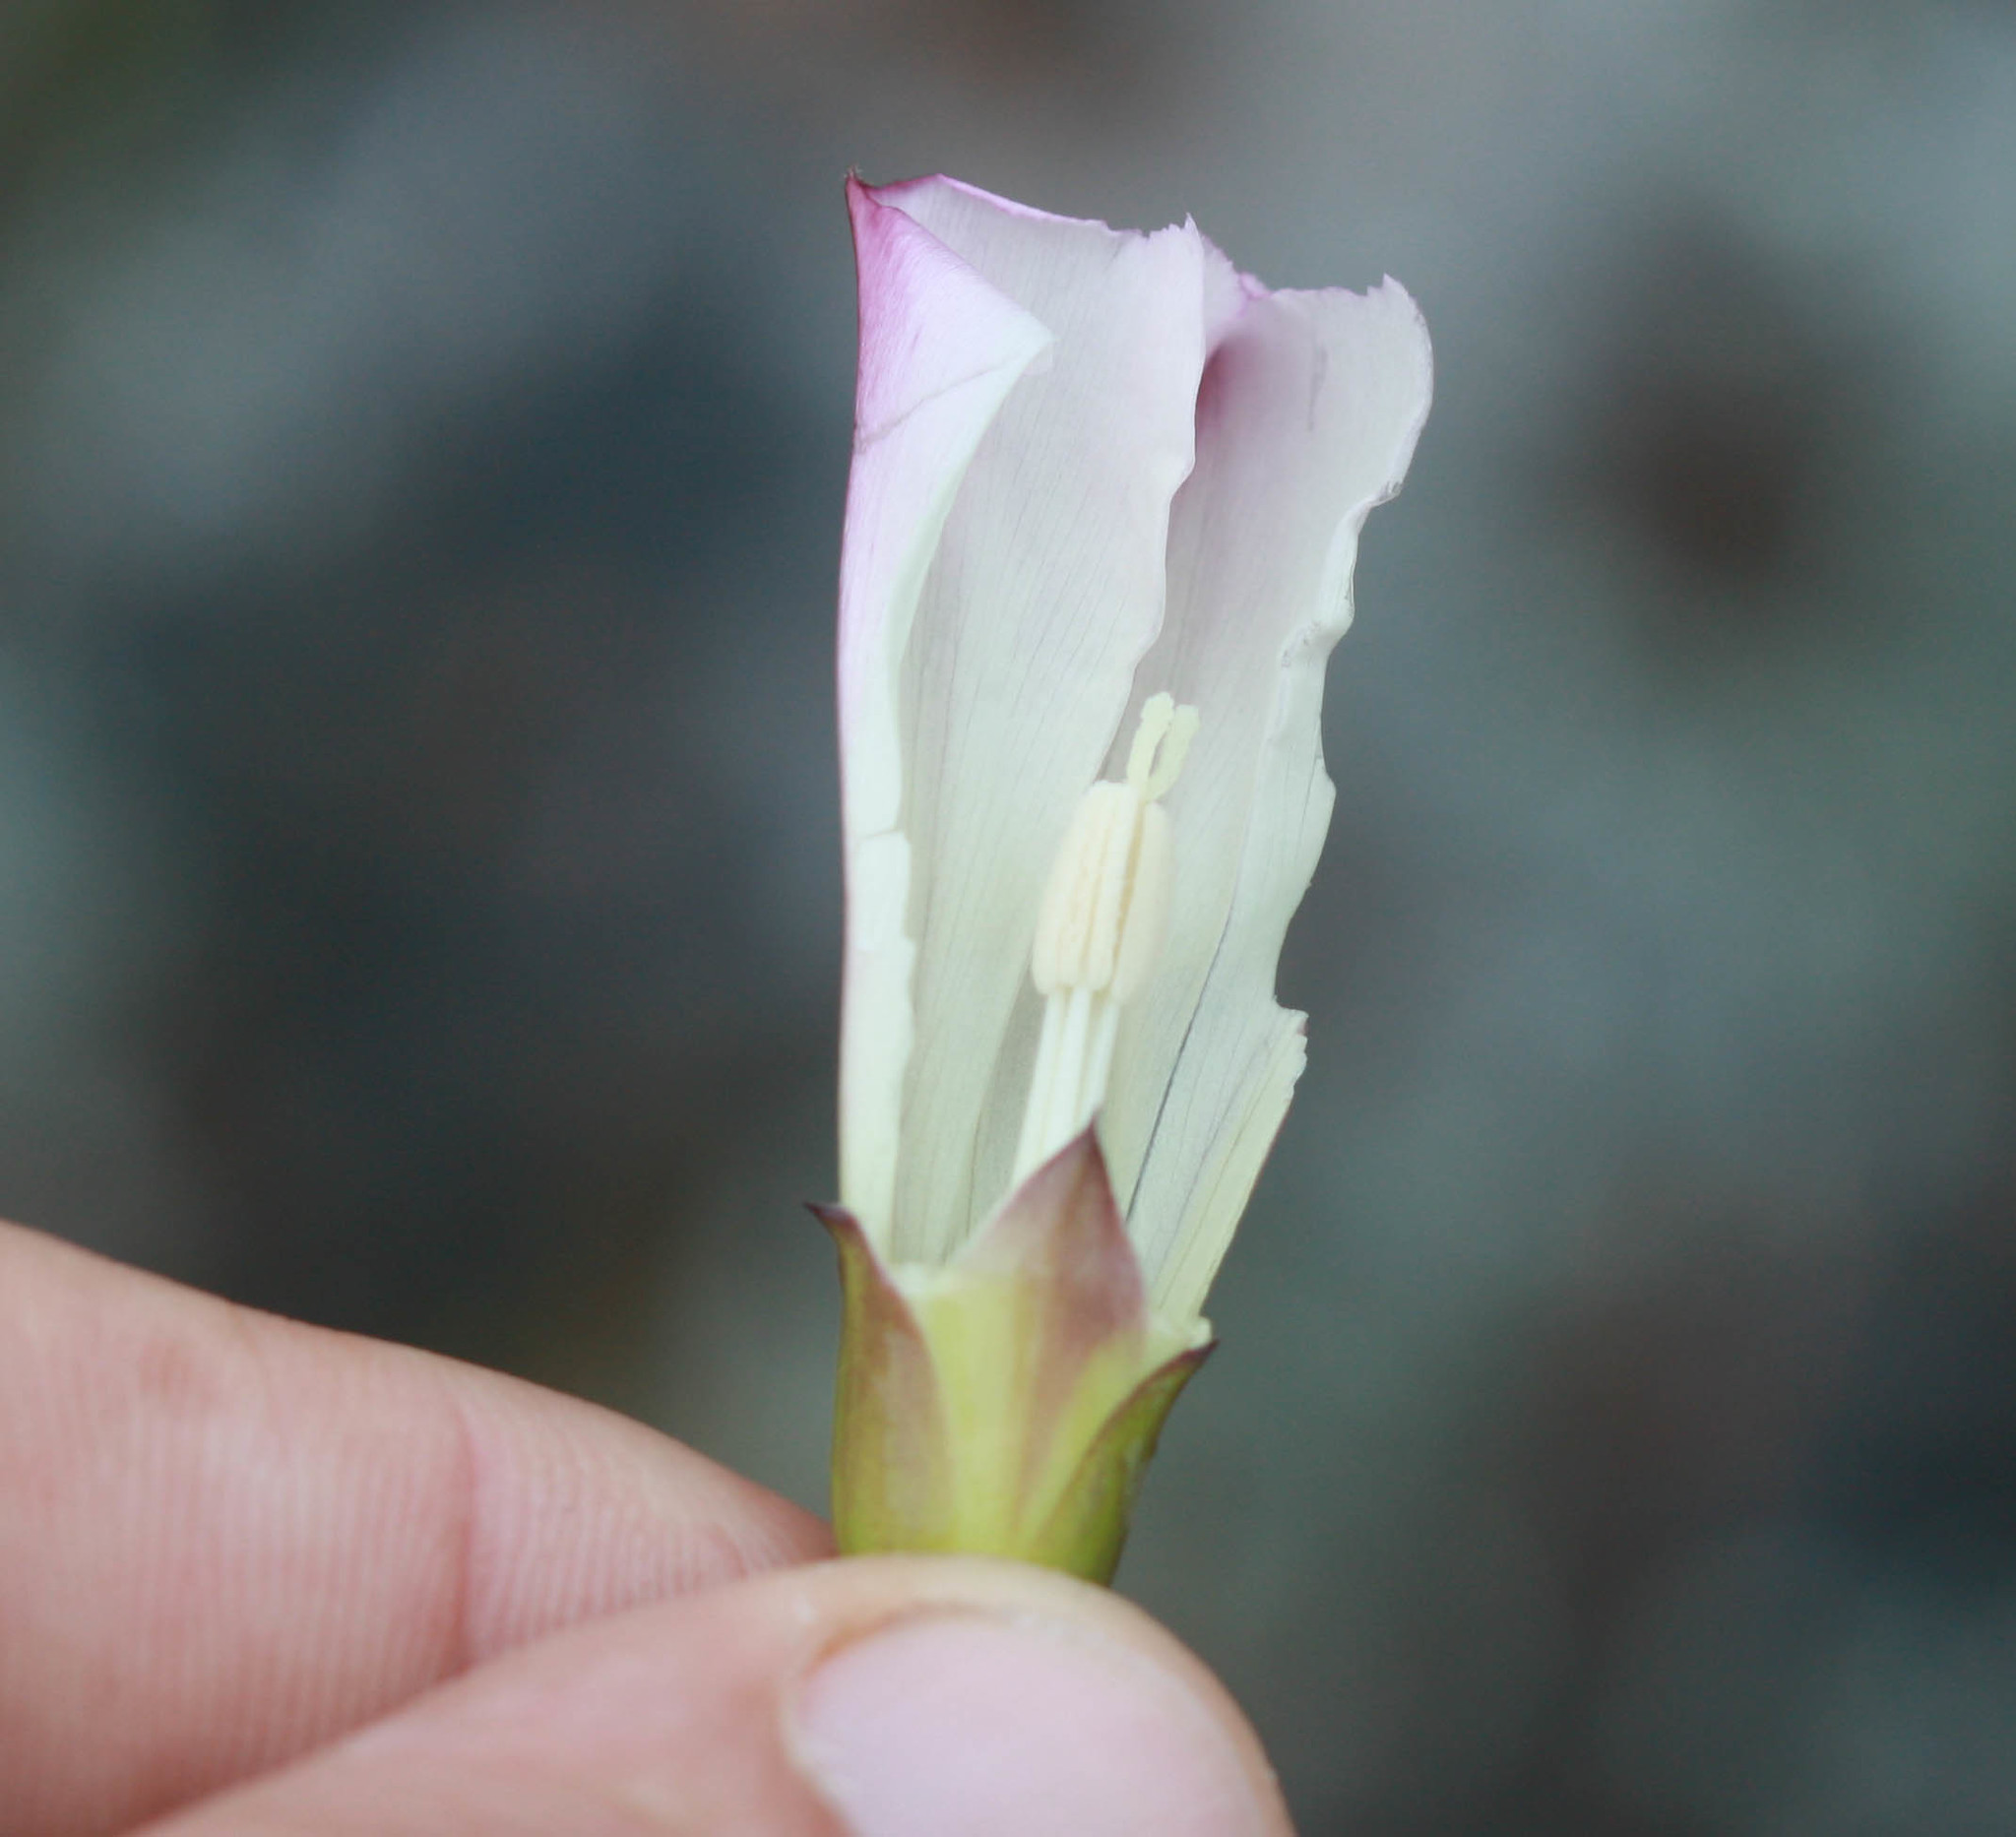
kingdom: Plantae
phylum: Tracheophyta
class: Magnoliopsida
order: Solanales
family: Convolvulaceae
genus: Calystegia
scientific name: Calystegia purpurata
